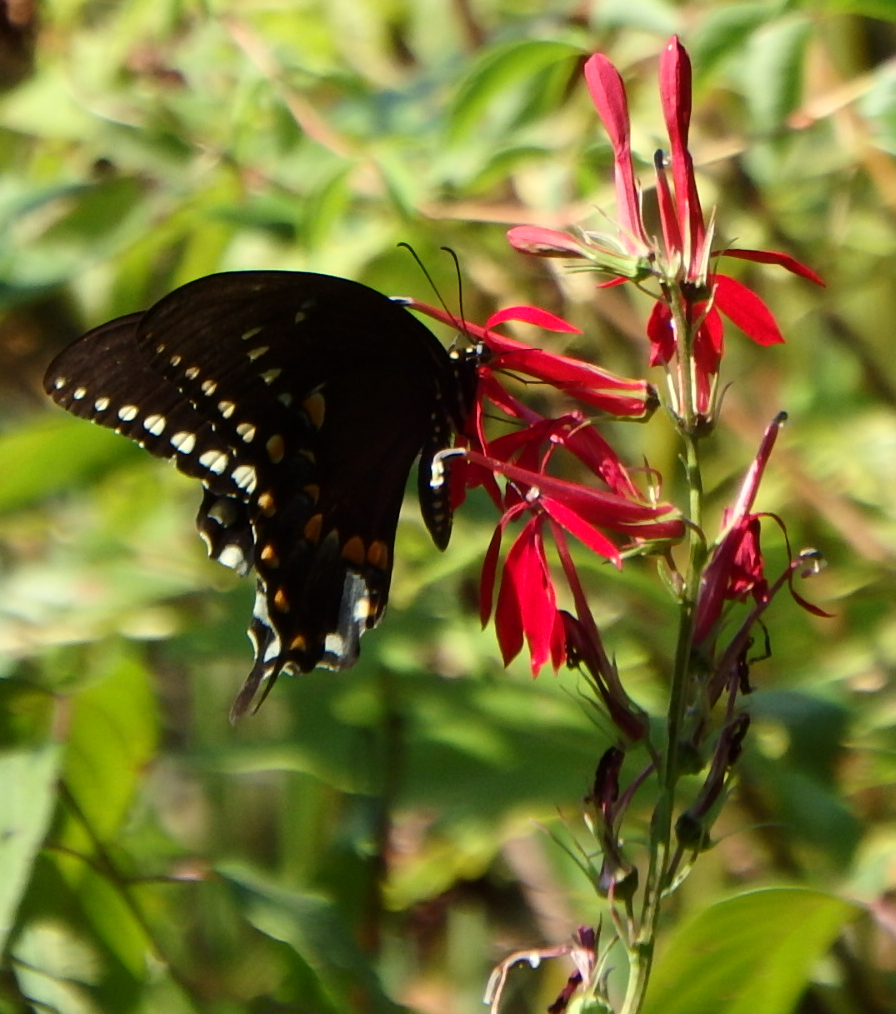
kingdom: Animalia
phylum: Arthropoda
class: Insecta
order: Lepidoptera
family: Papilionidae
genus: Papilio
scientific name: Papilio troilus
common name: Spicebush swallowtail
